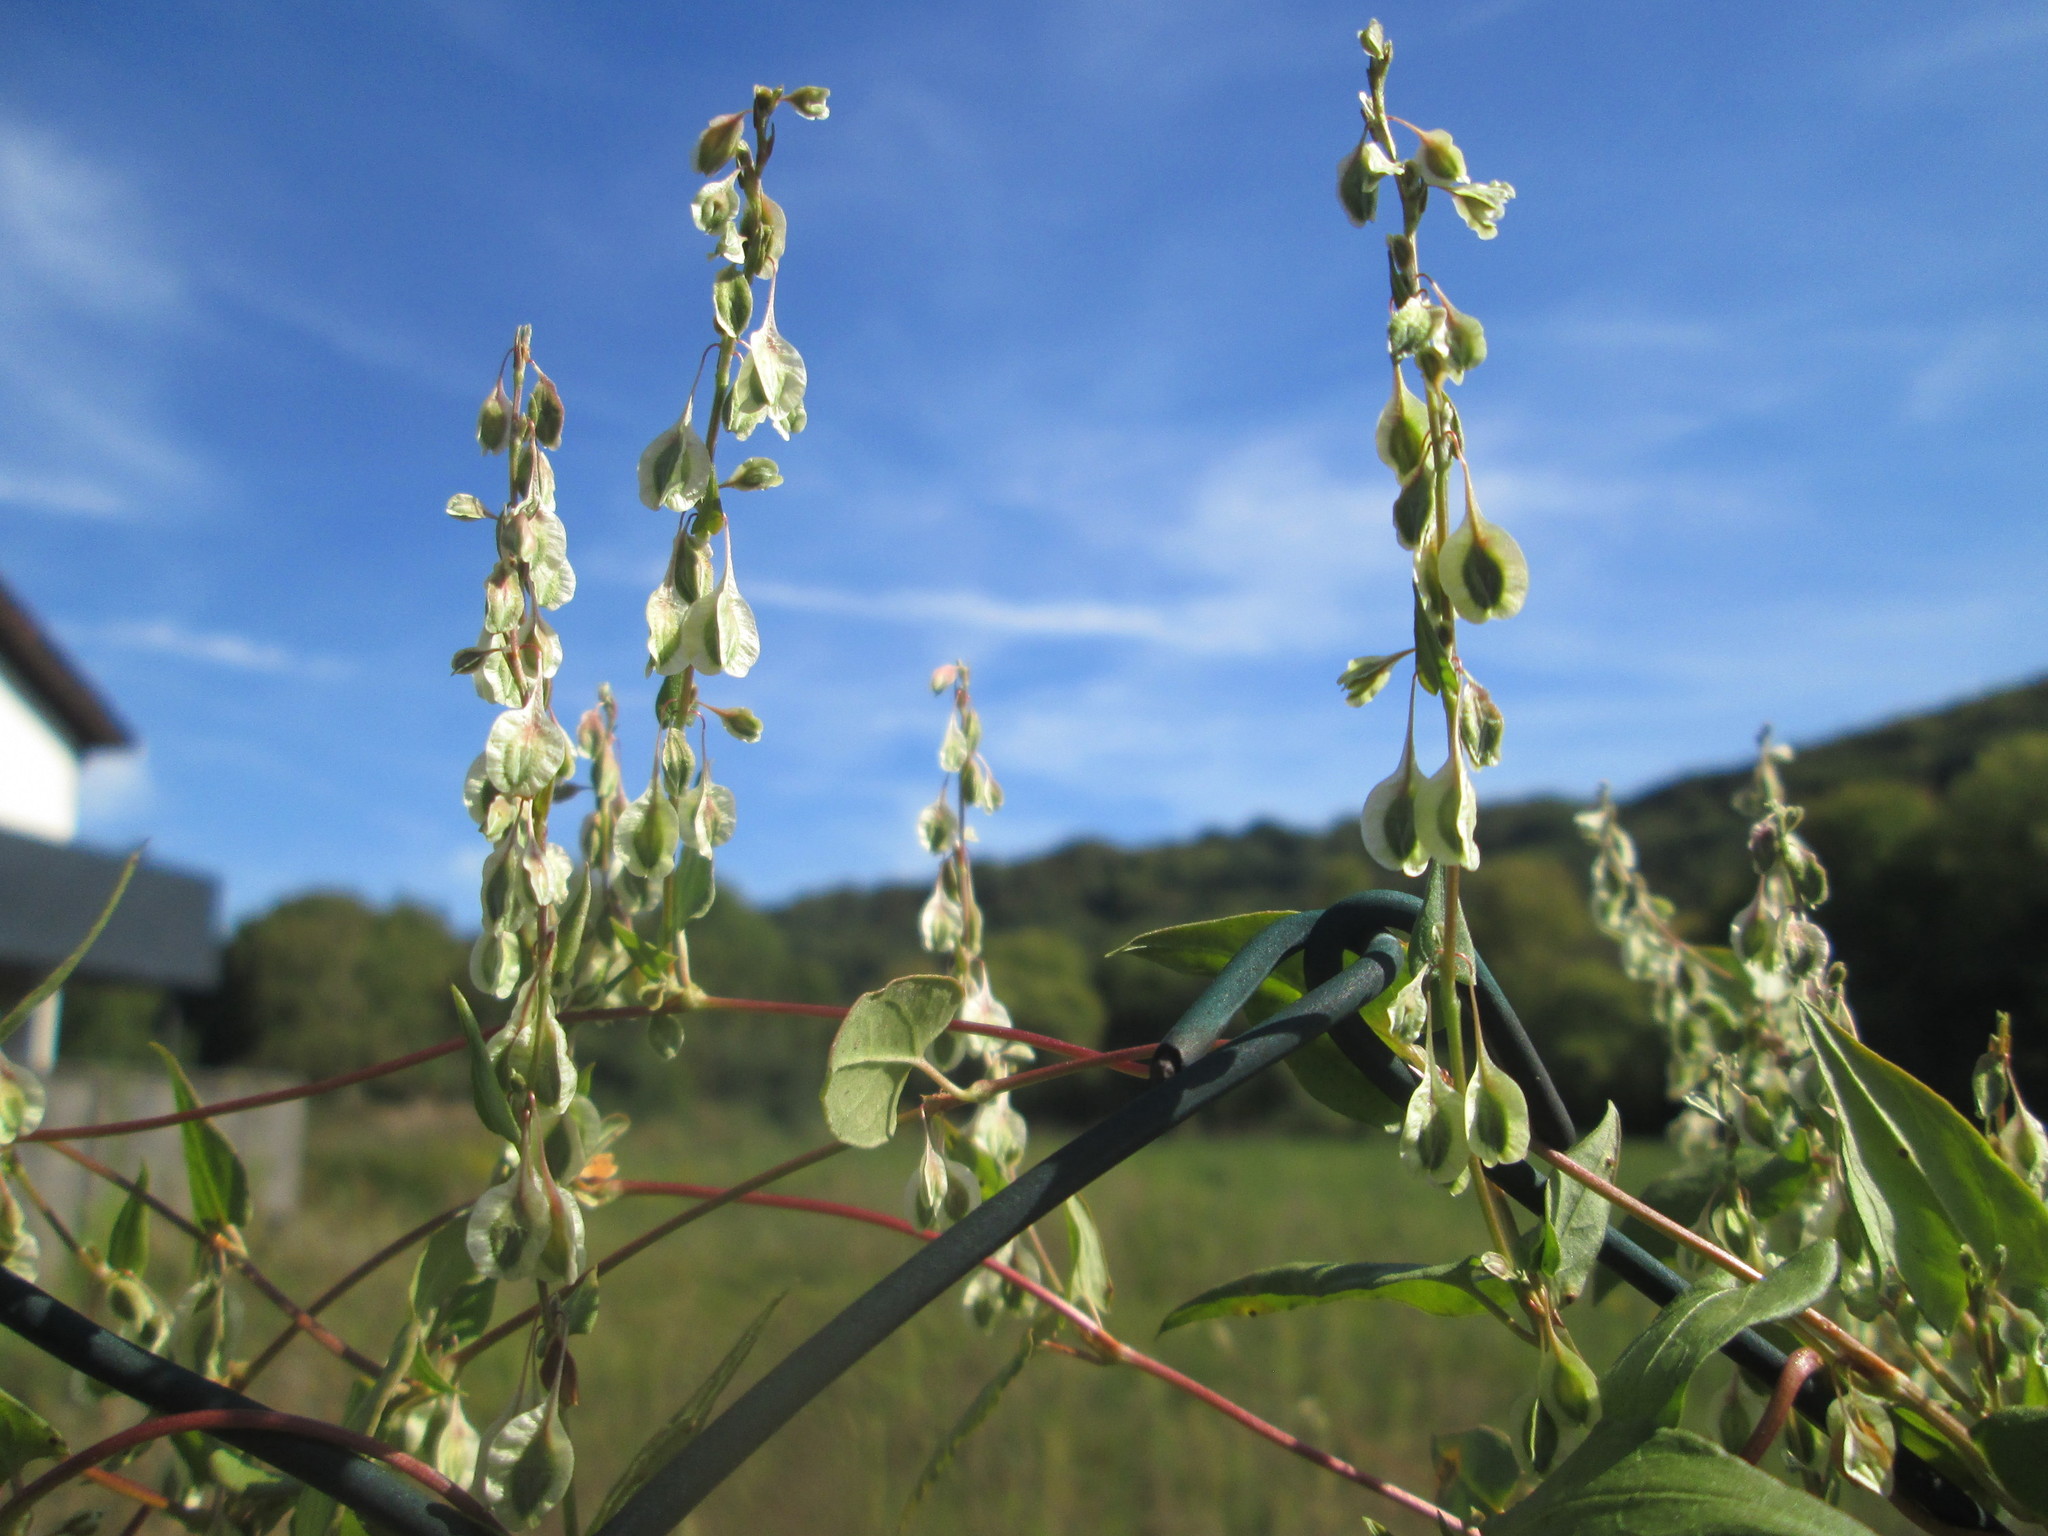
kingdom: Plantae
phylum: Tracheophyta
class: Magnoliopsida
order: Caryophyllales
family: Polygonaceae
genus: Fallopia
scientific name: Fallopia dumetorum
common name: Copse-bindweed
